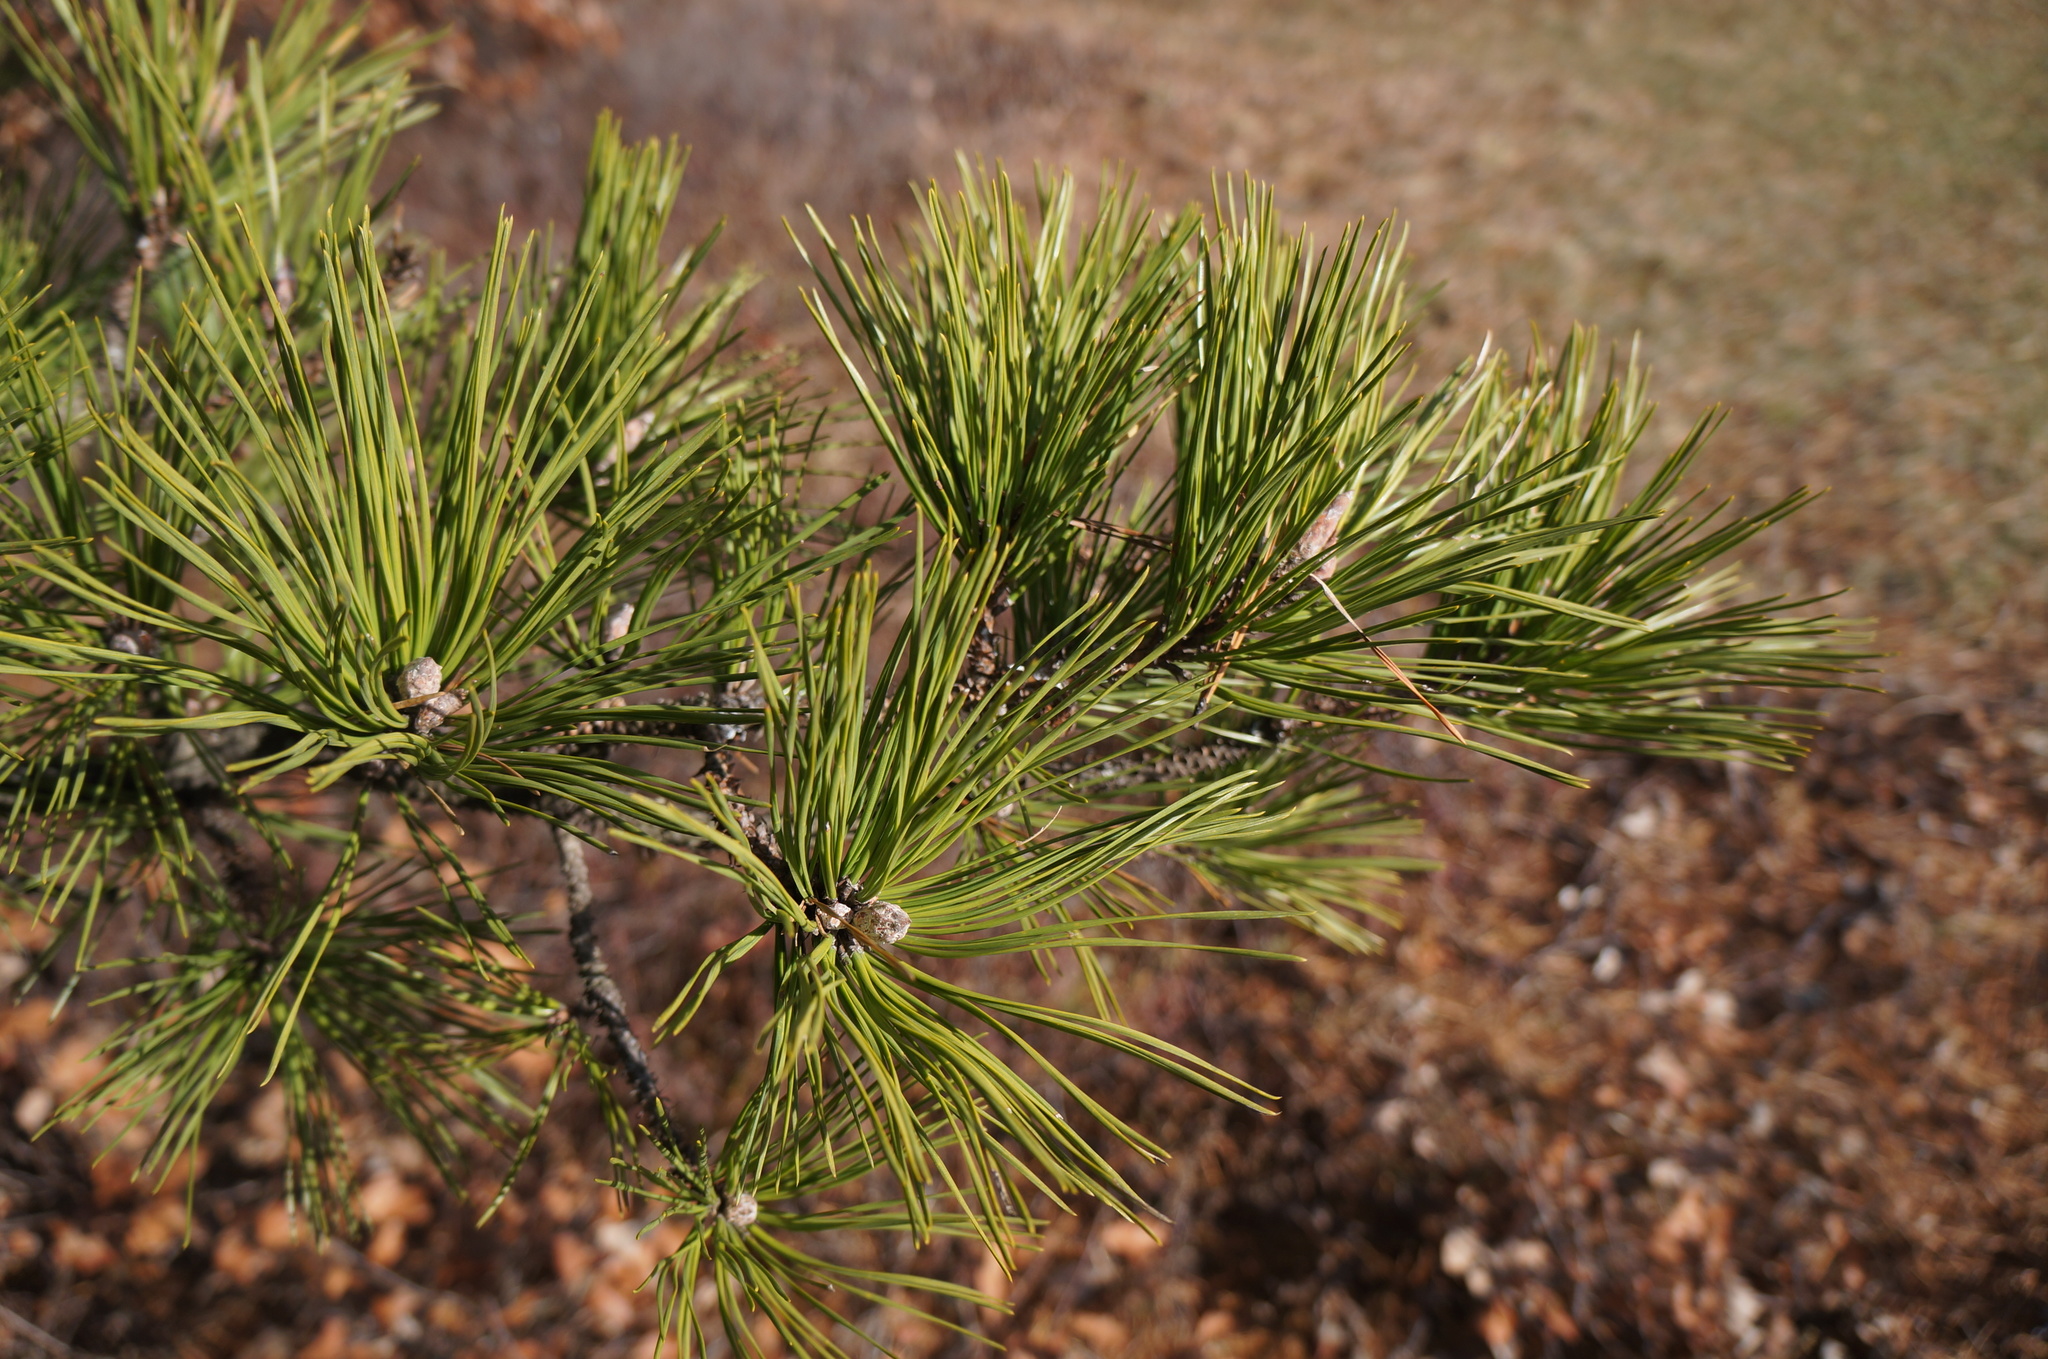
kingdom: Plantae
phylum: Tracheophyta
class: Pinopsida
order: Pinales
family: Pinaceae
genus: Pinus
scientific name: Pinus rigida
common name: Pitch pine
